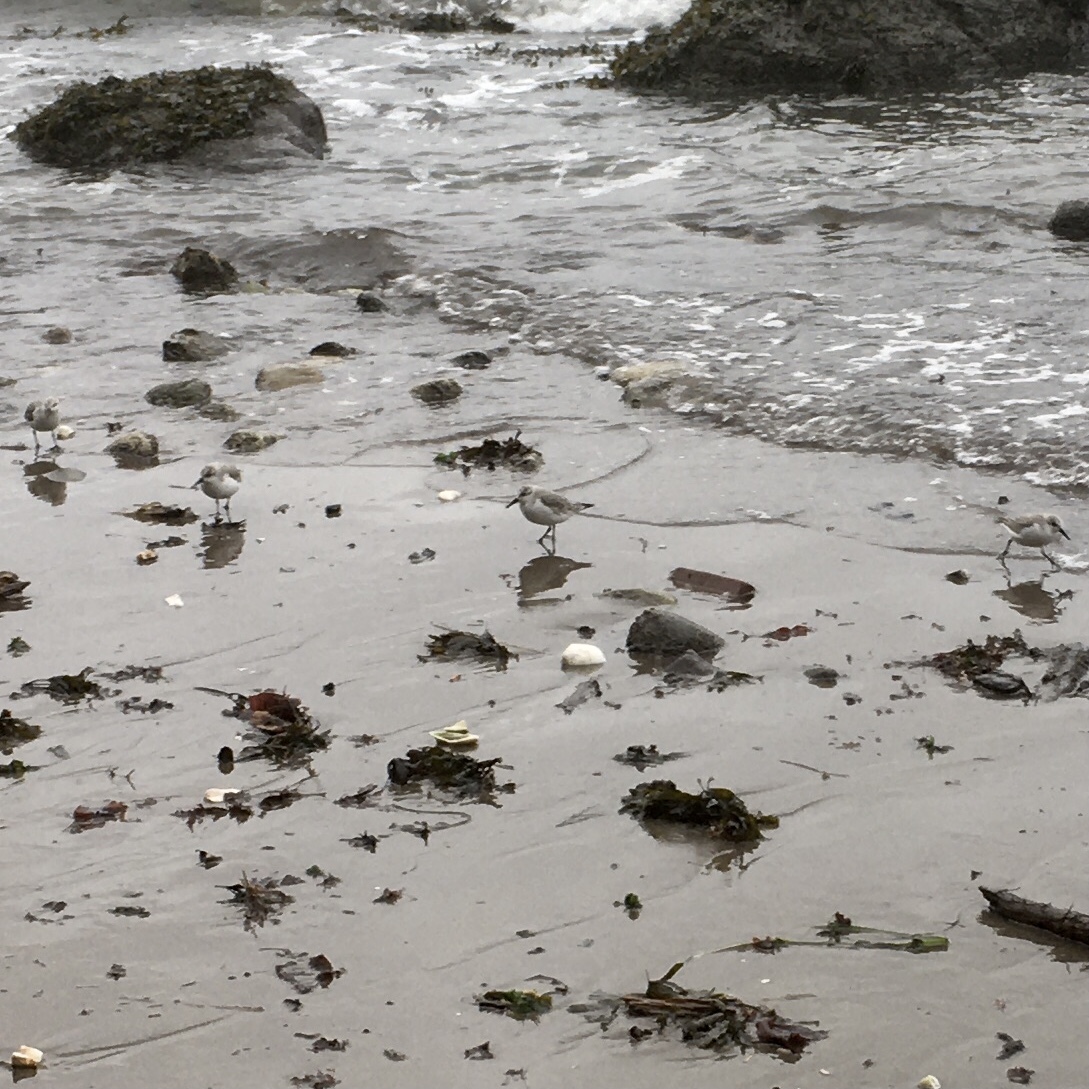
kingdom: Animalia
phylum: Chordata
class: Aves
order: Charadriiformes
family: Scolopacidae
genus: Calidris
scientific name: Calidris alba
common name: Sanderling
